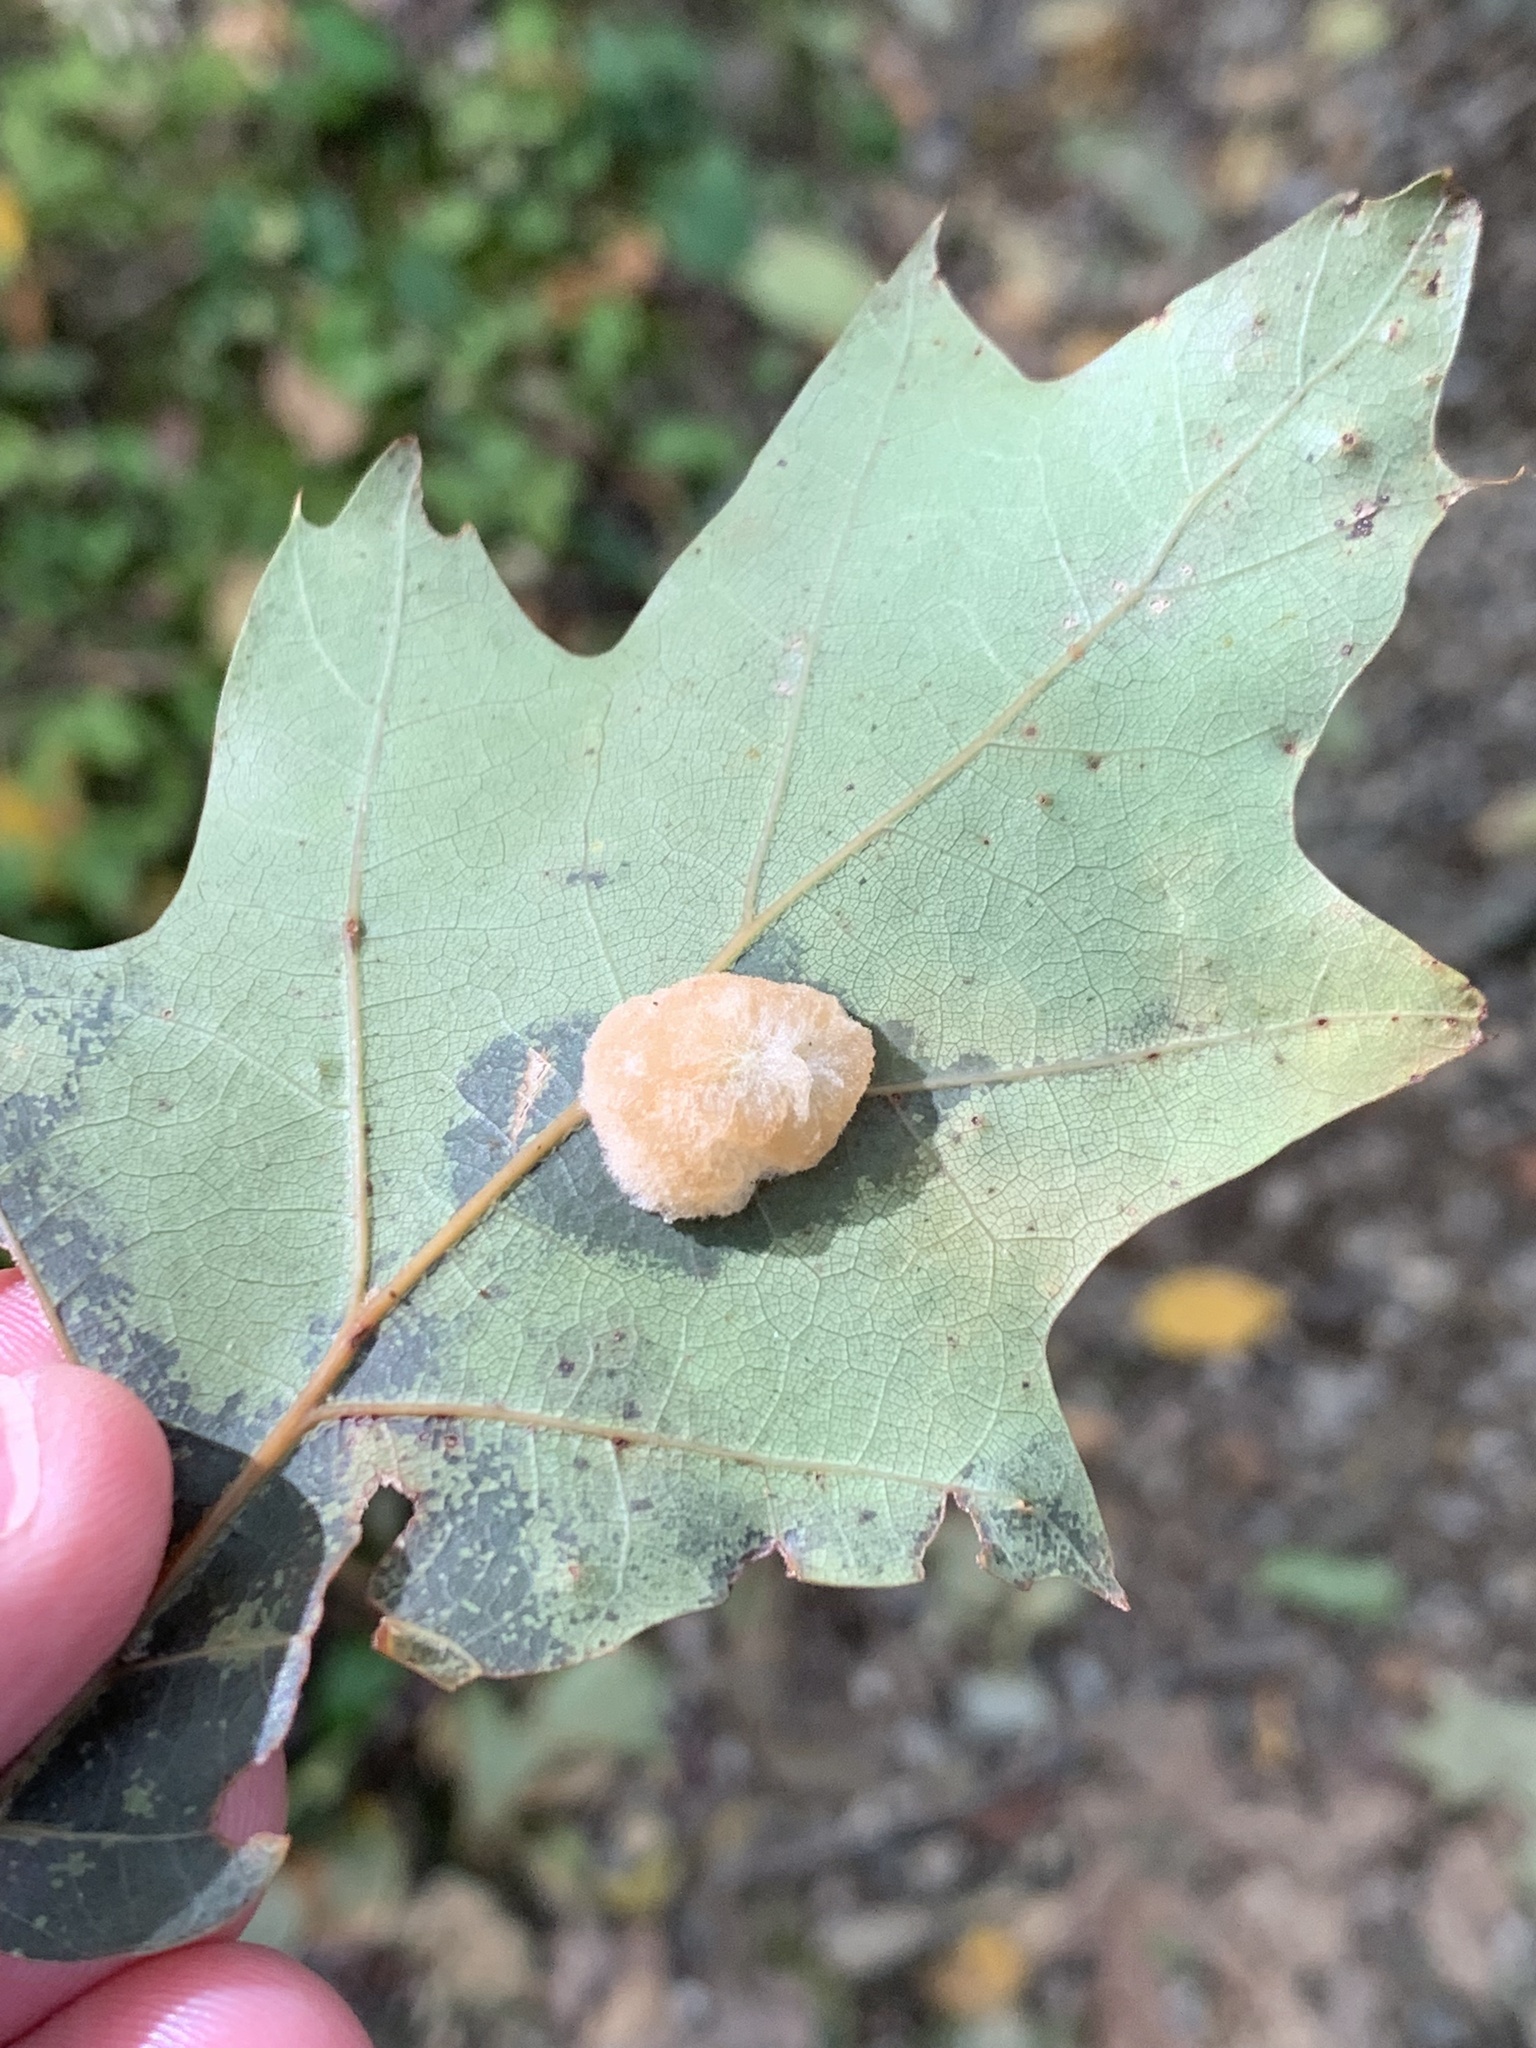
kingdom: Animalia
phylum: Arthropoda
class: Insecta
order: Hymenoptera
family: Cynipidae
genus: Callirhytis
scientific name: Callirhytis
